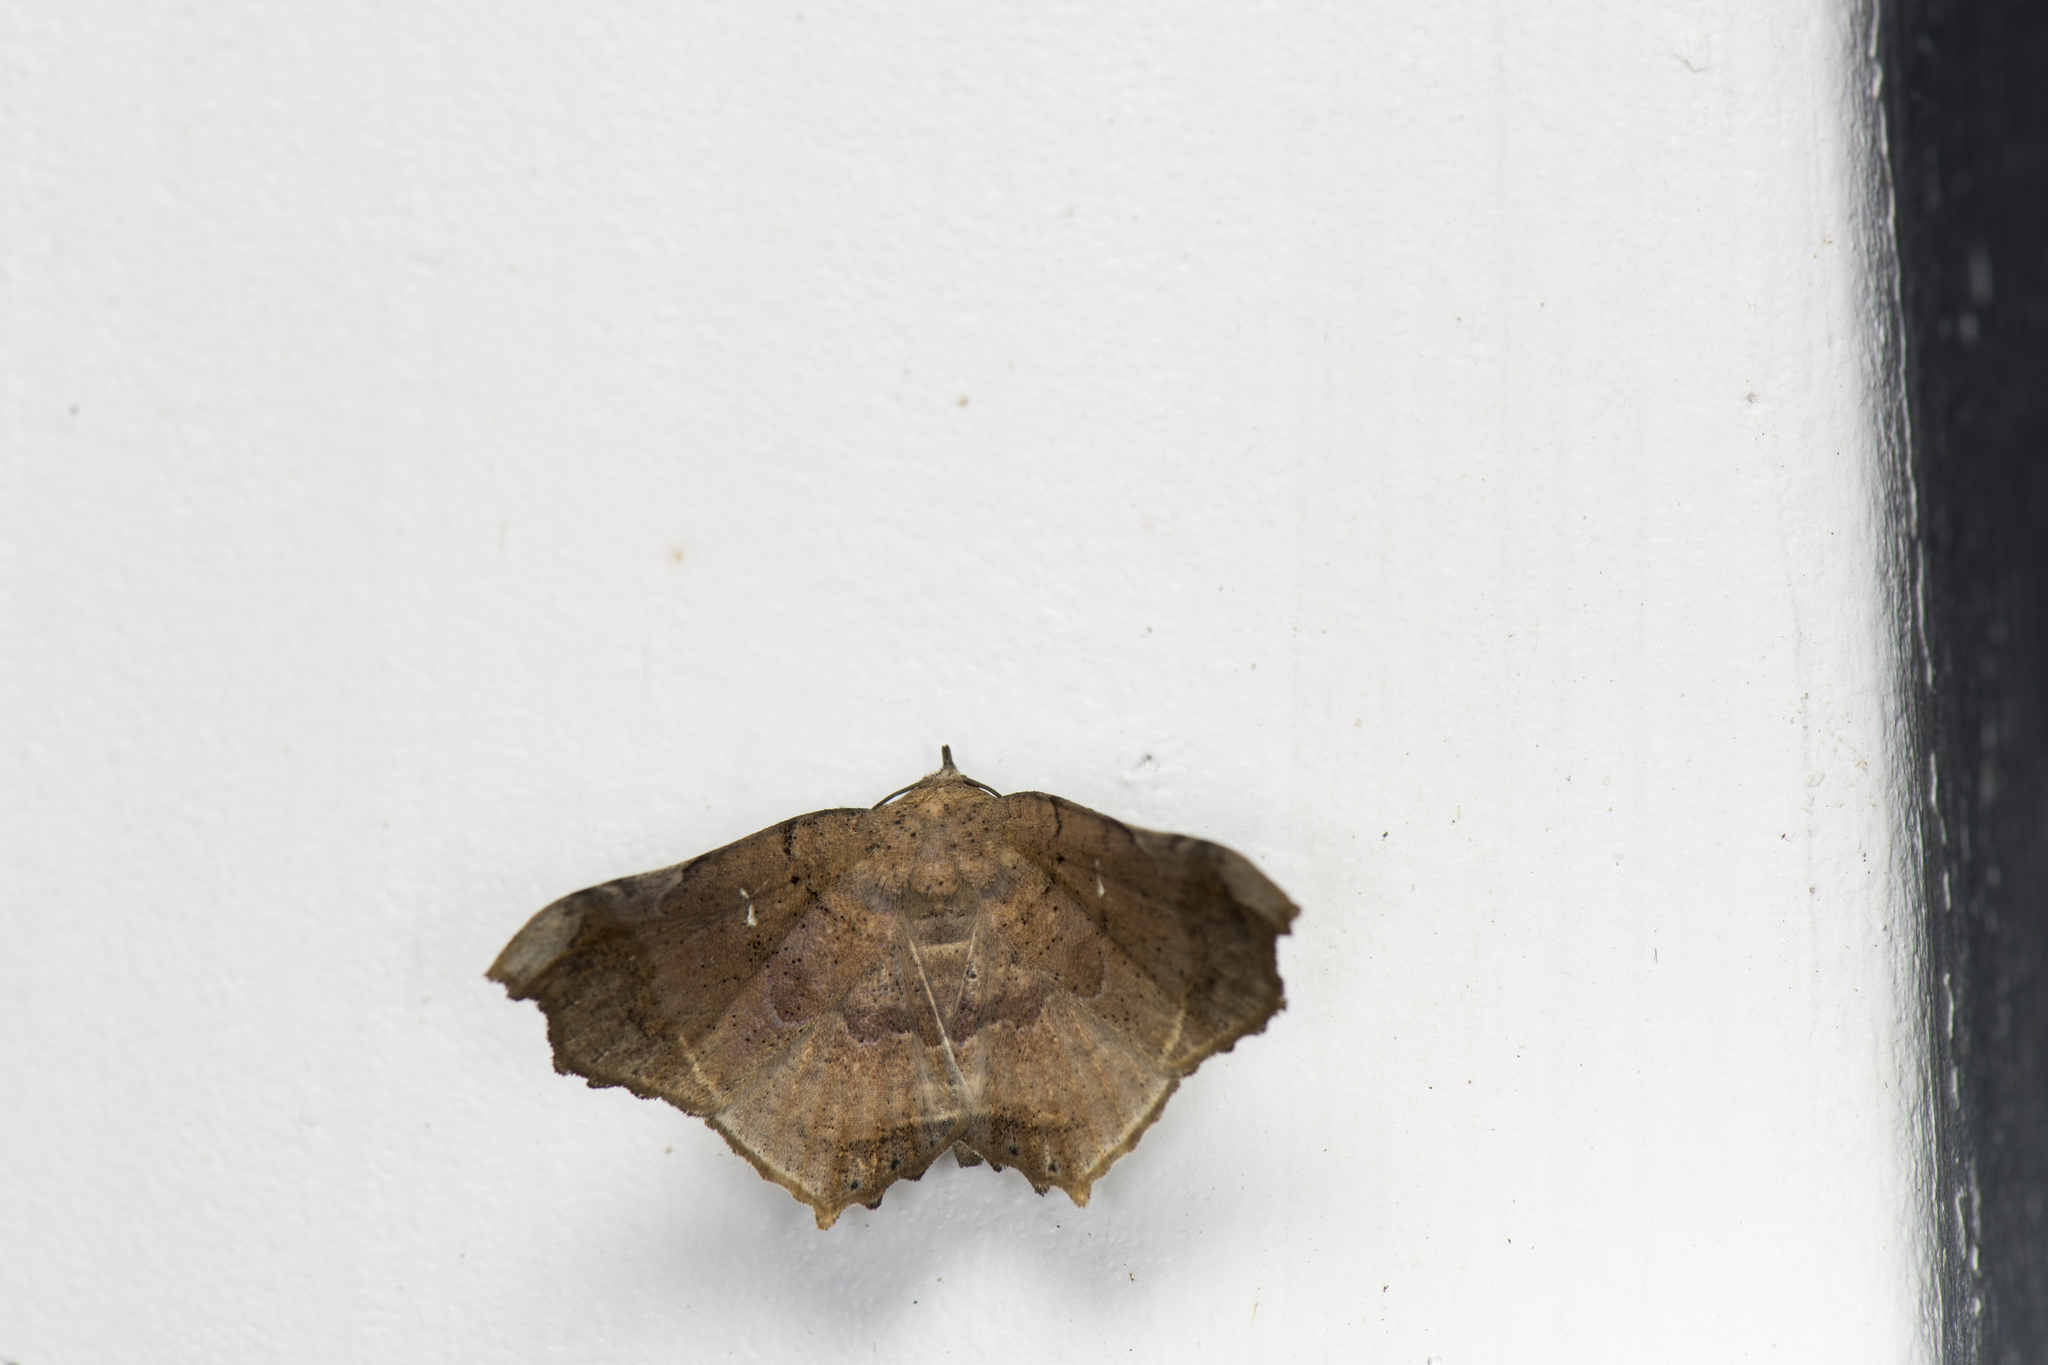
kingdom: Animalia
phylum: Arthropoda
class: Insecta
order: Lepidoptera
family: Erebidae
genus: Semiothisops
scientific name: Semiothisops macariata
